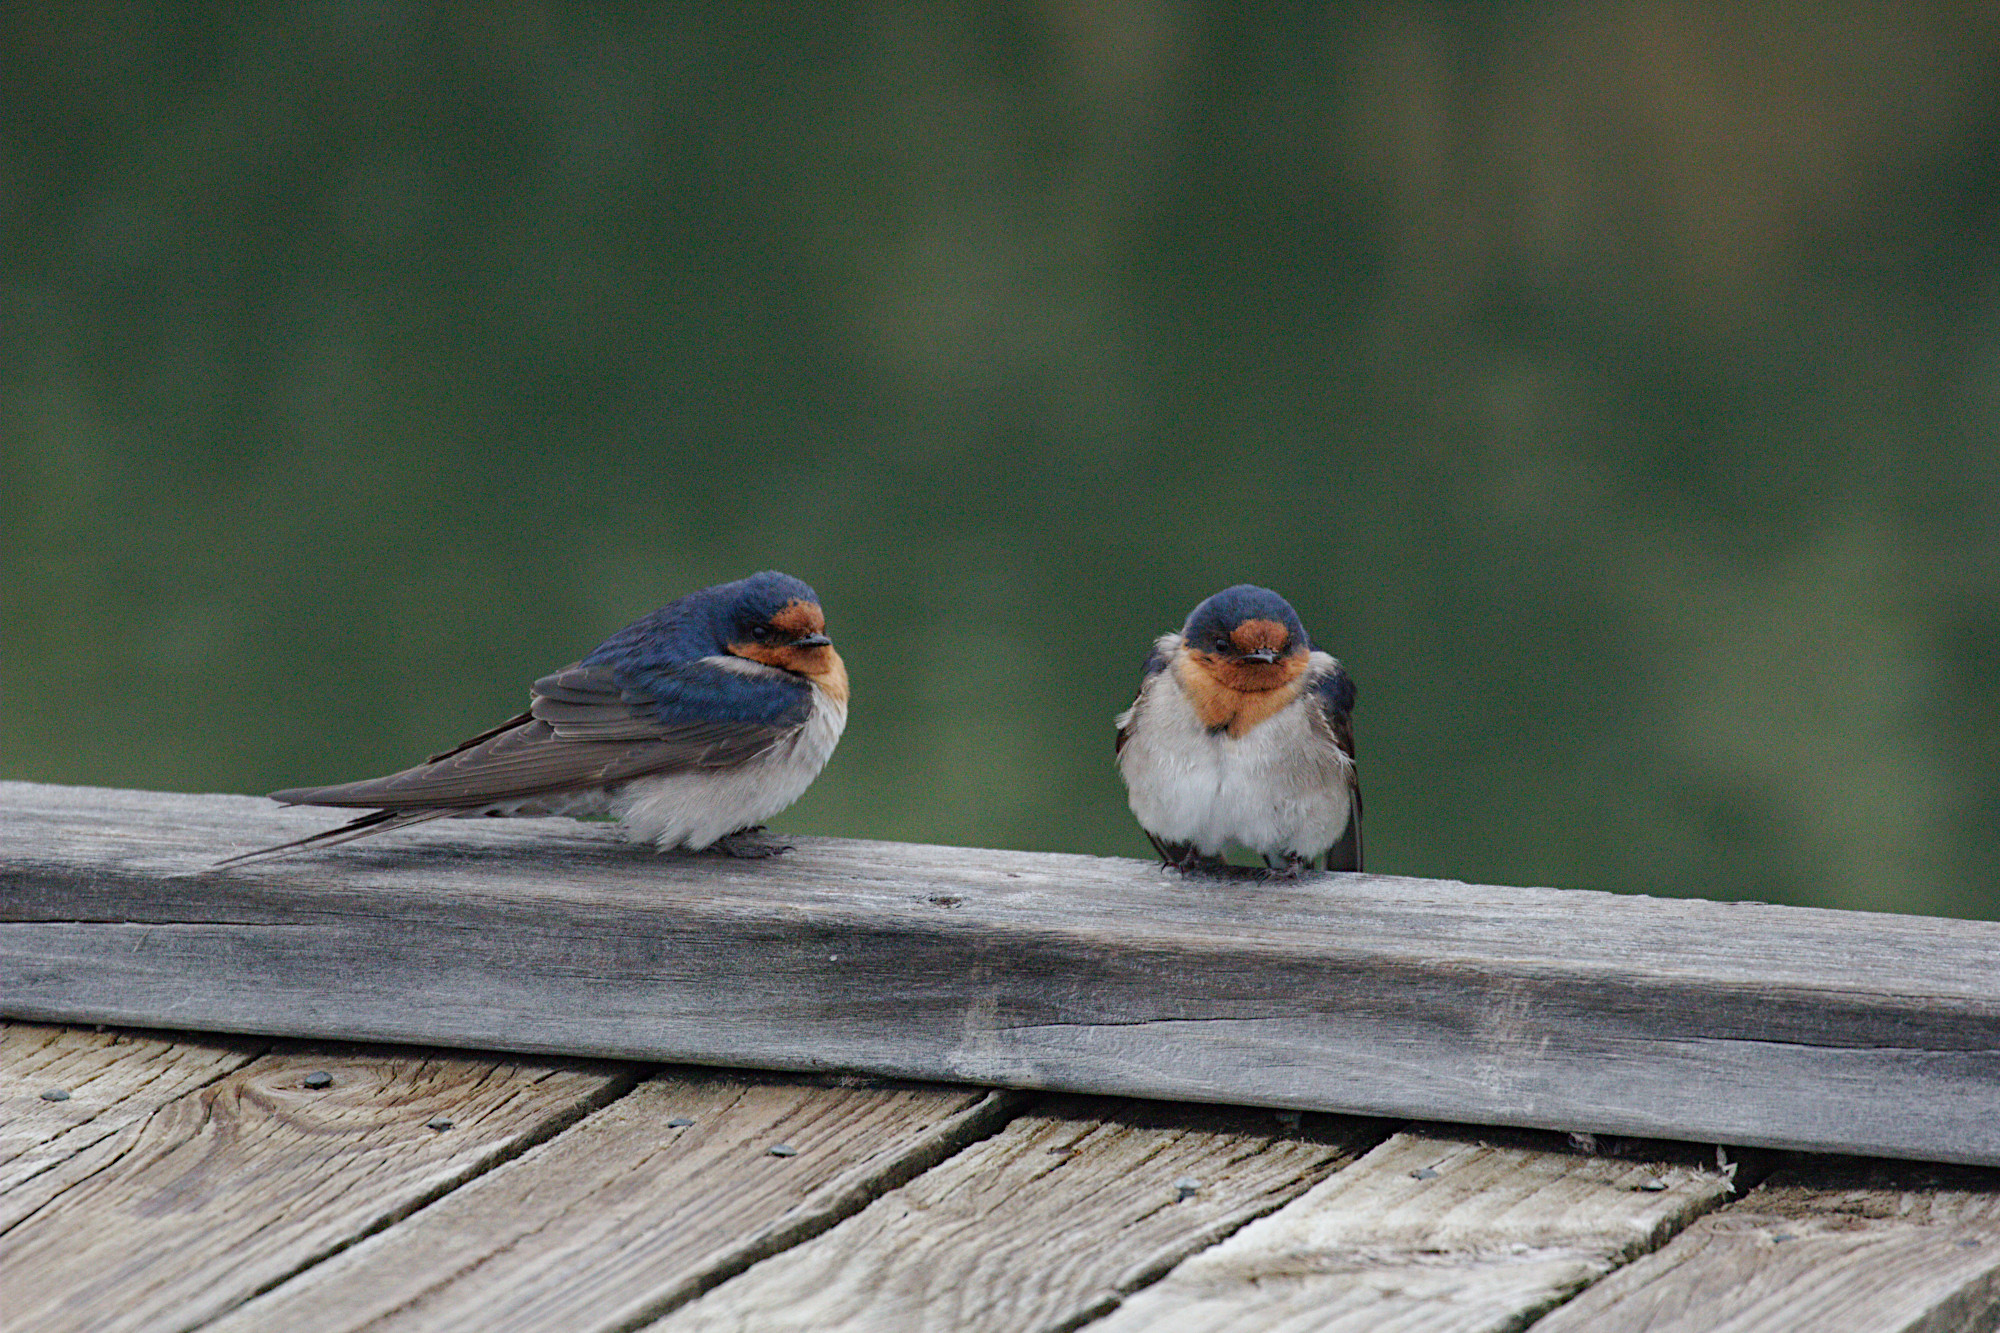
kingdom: Animalia
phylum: Chordata
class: Aves
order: Passeriformes
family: Hirundinidae
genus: Hirundo
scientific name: Hirundo neoxena
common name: Welcome swallow
